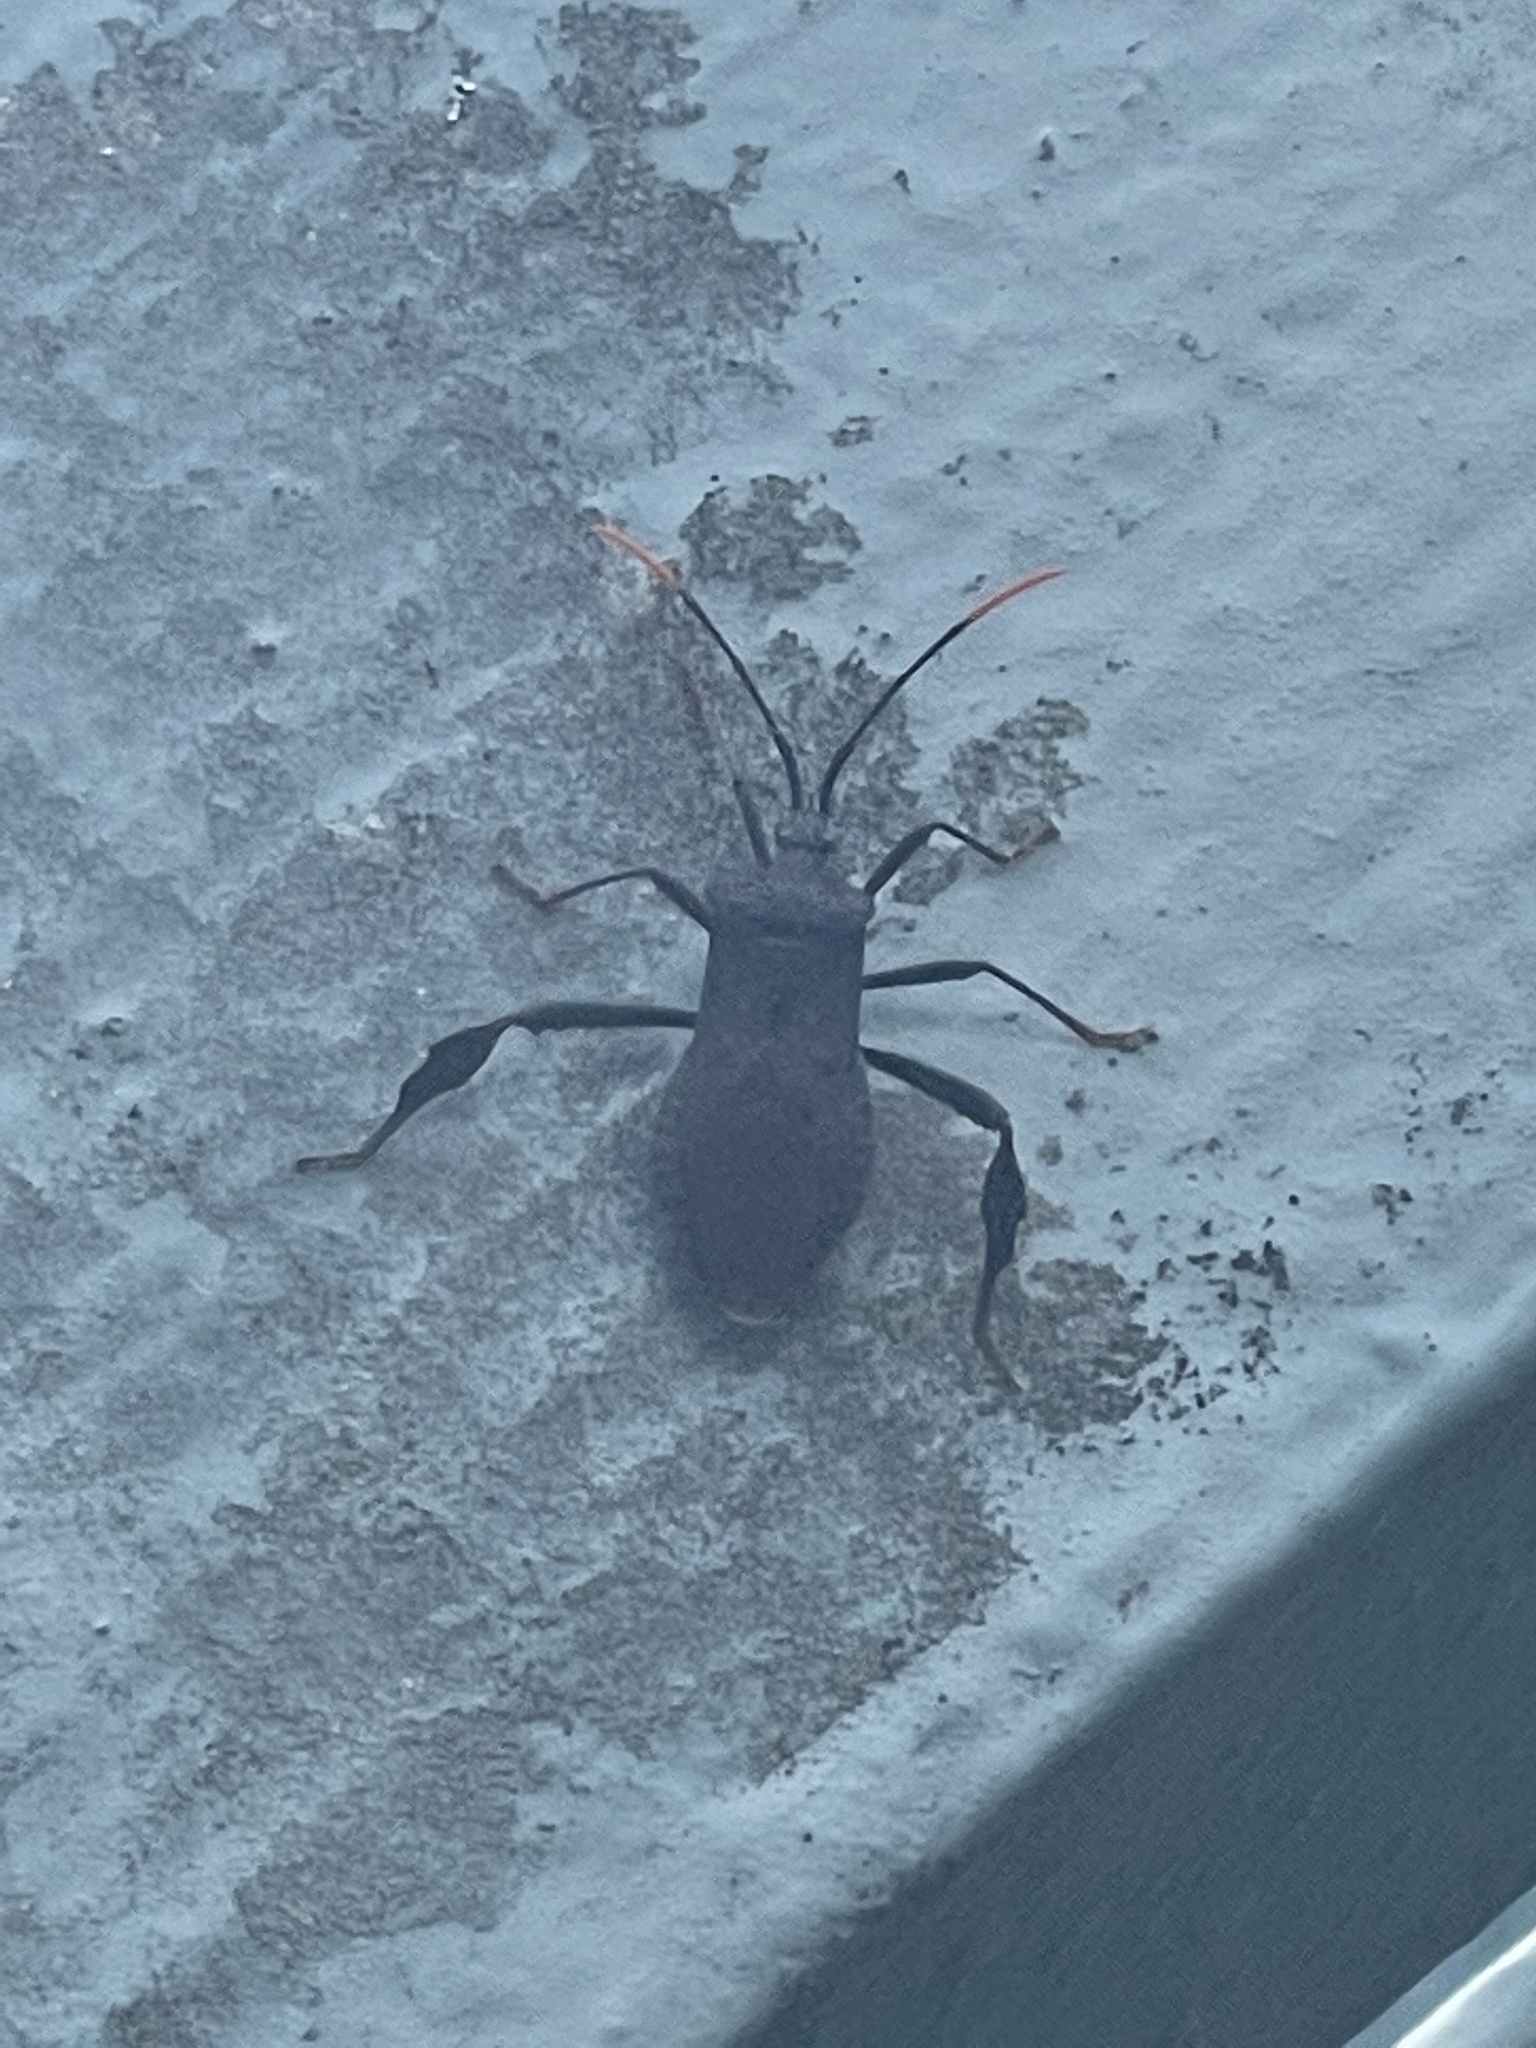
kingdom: Animalia
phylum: Arthropoda
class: Insecta
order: Hemiptera
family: Coreidae
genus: Acanthocephala
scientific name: Acanthocephala terminalis
